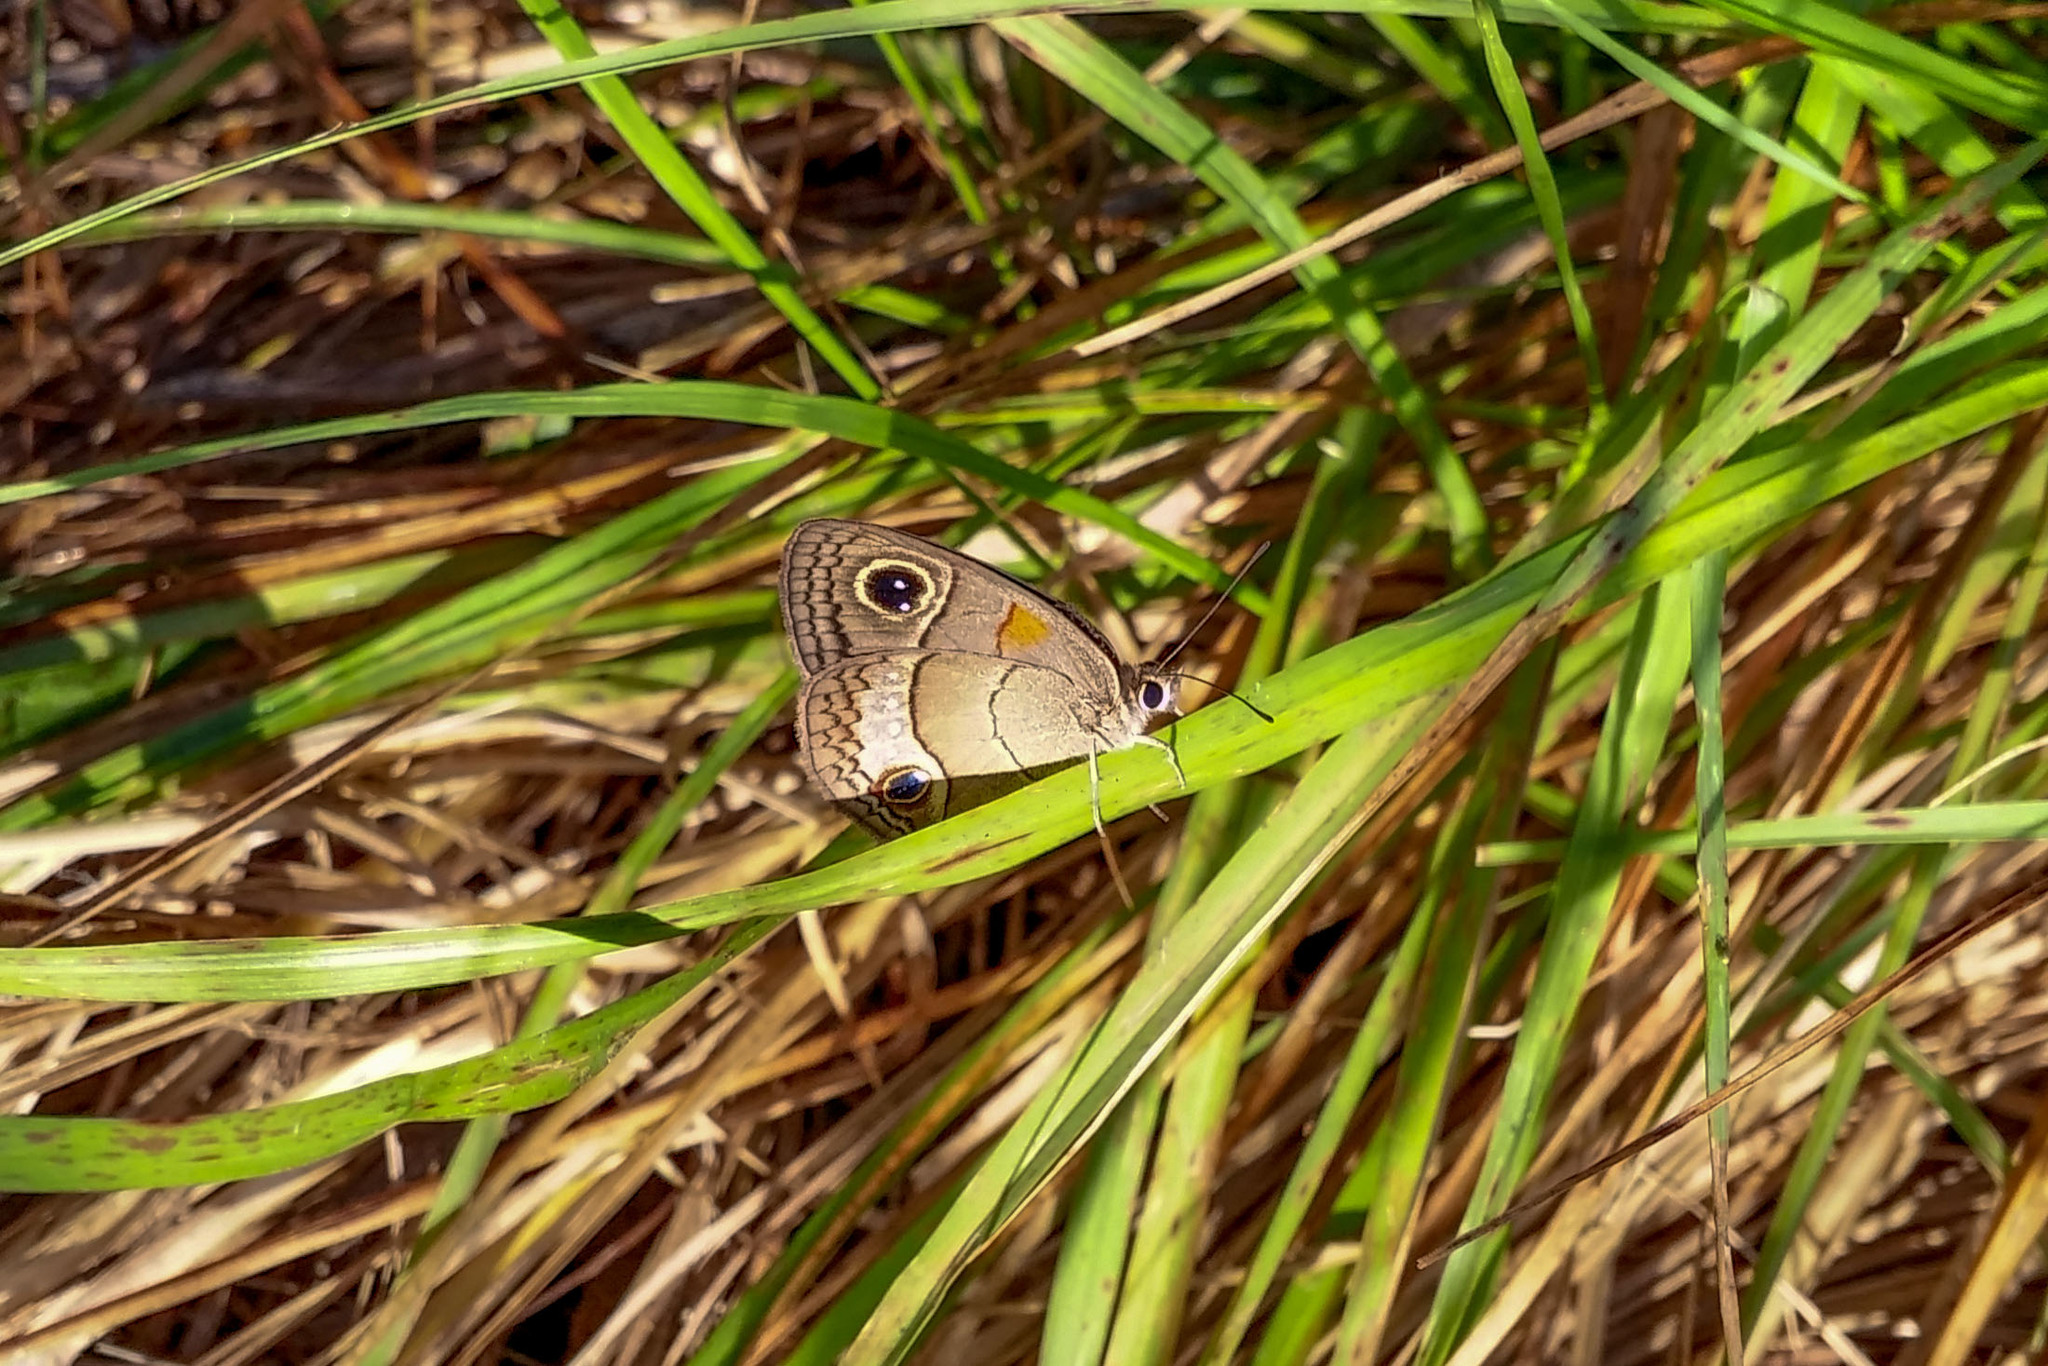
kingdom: Animalia
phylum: Arthropoda
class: Insecta
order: Lepidoptera
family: Nymphalidae
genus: Calisto
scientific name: Calisto herophile
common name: Cuban calisto
